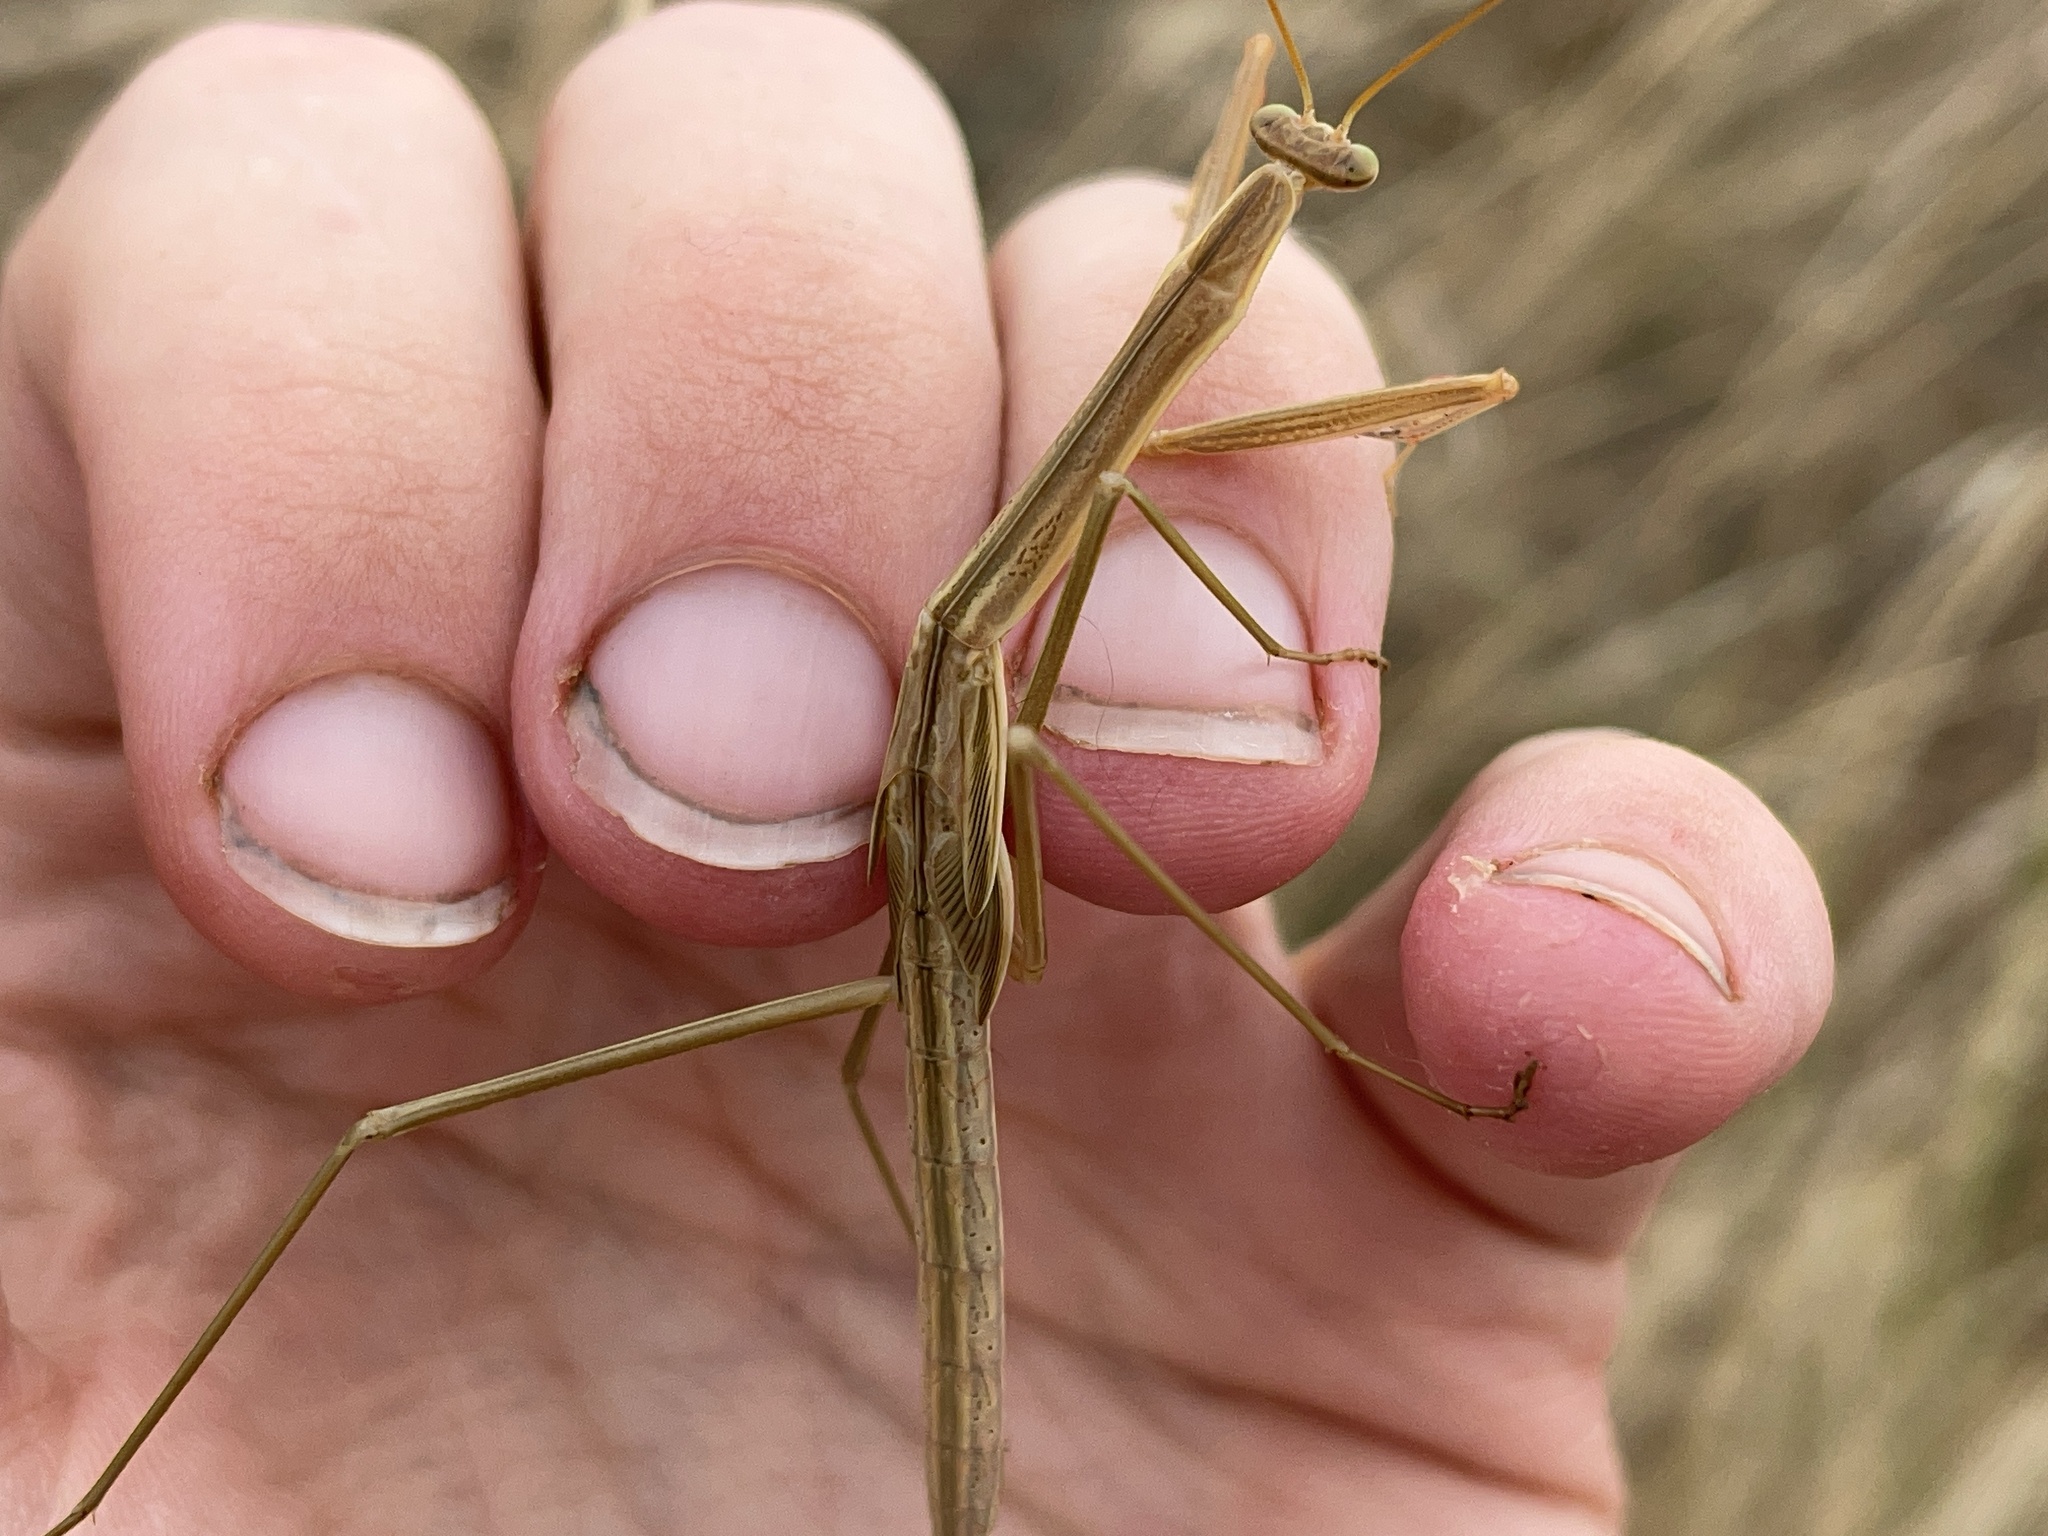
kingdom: Animalia
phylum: Arthropoda
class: Insecta
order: Mantodea
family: Mantidae
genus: Tenodera
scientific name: Tenodera australasiae
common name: Purple-winged mantis
